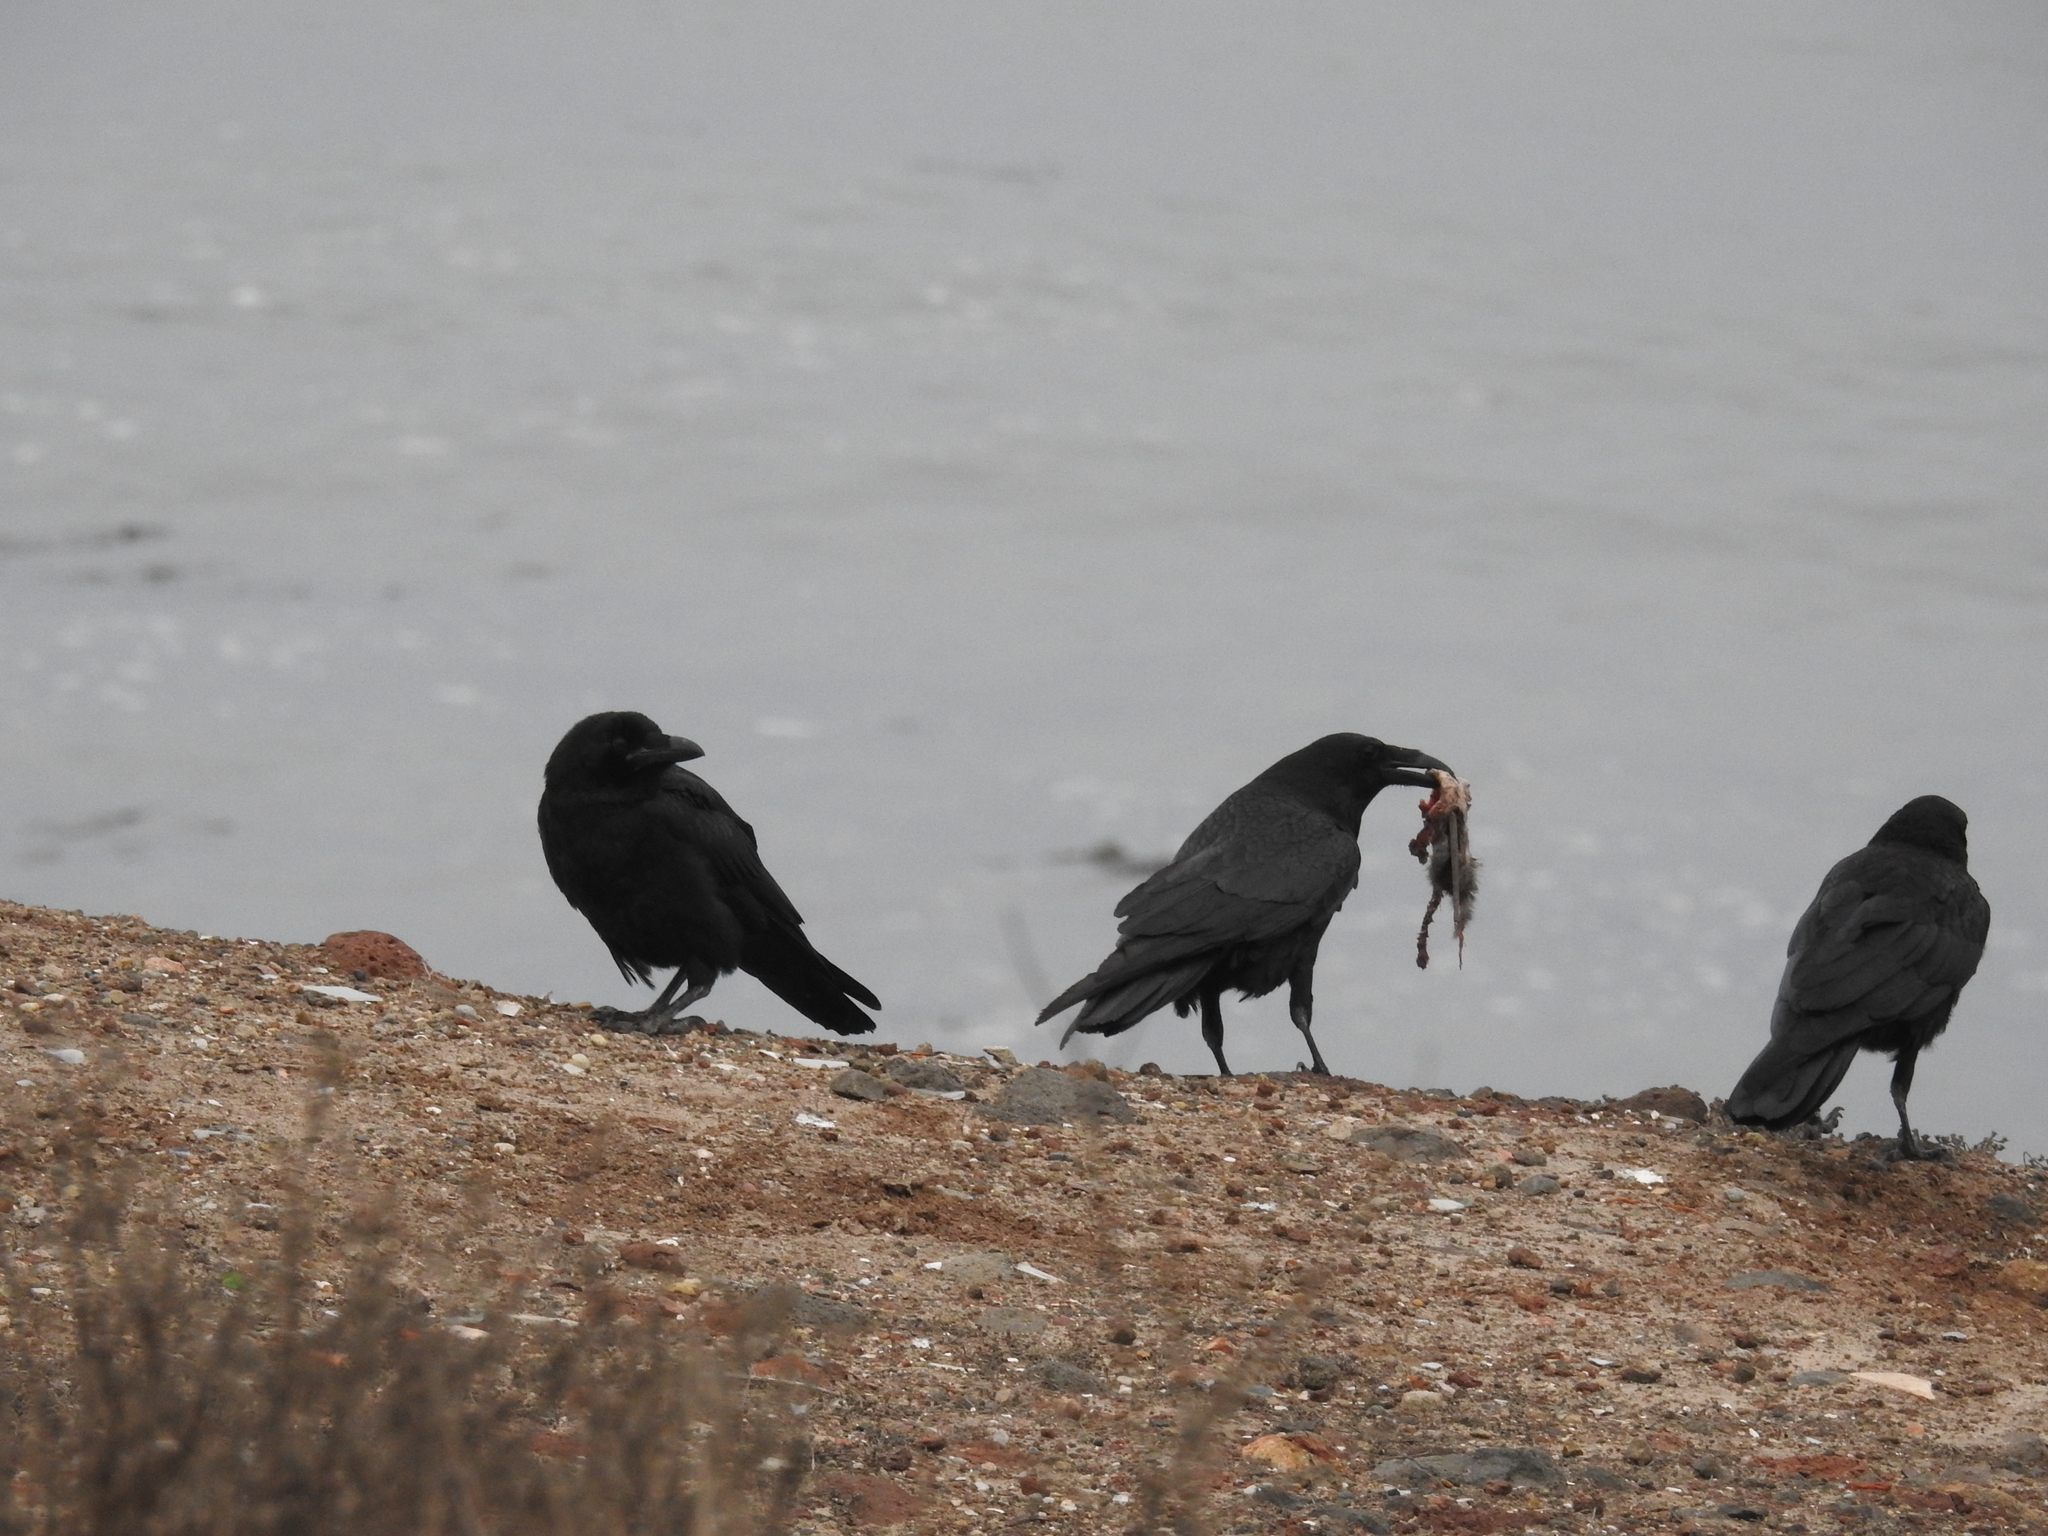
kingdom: Animalia
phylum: Chordata
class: Aves
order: Passeriformes
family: Corvidae
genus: Corvus
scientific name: Corvus corax
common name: Common raven
